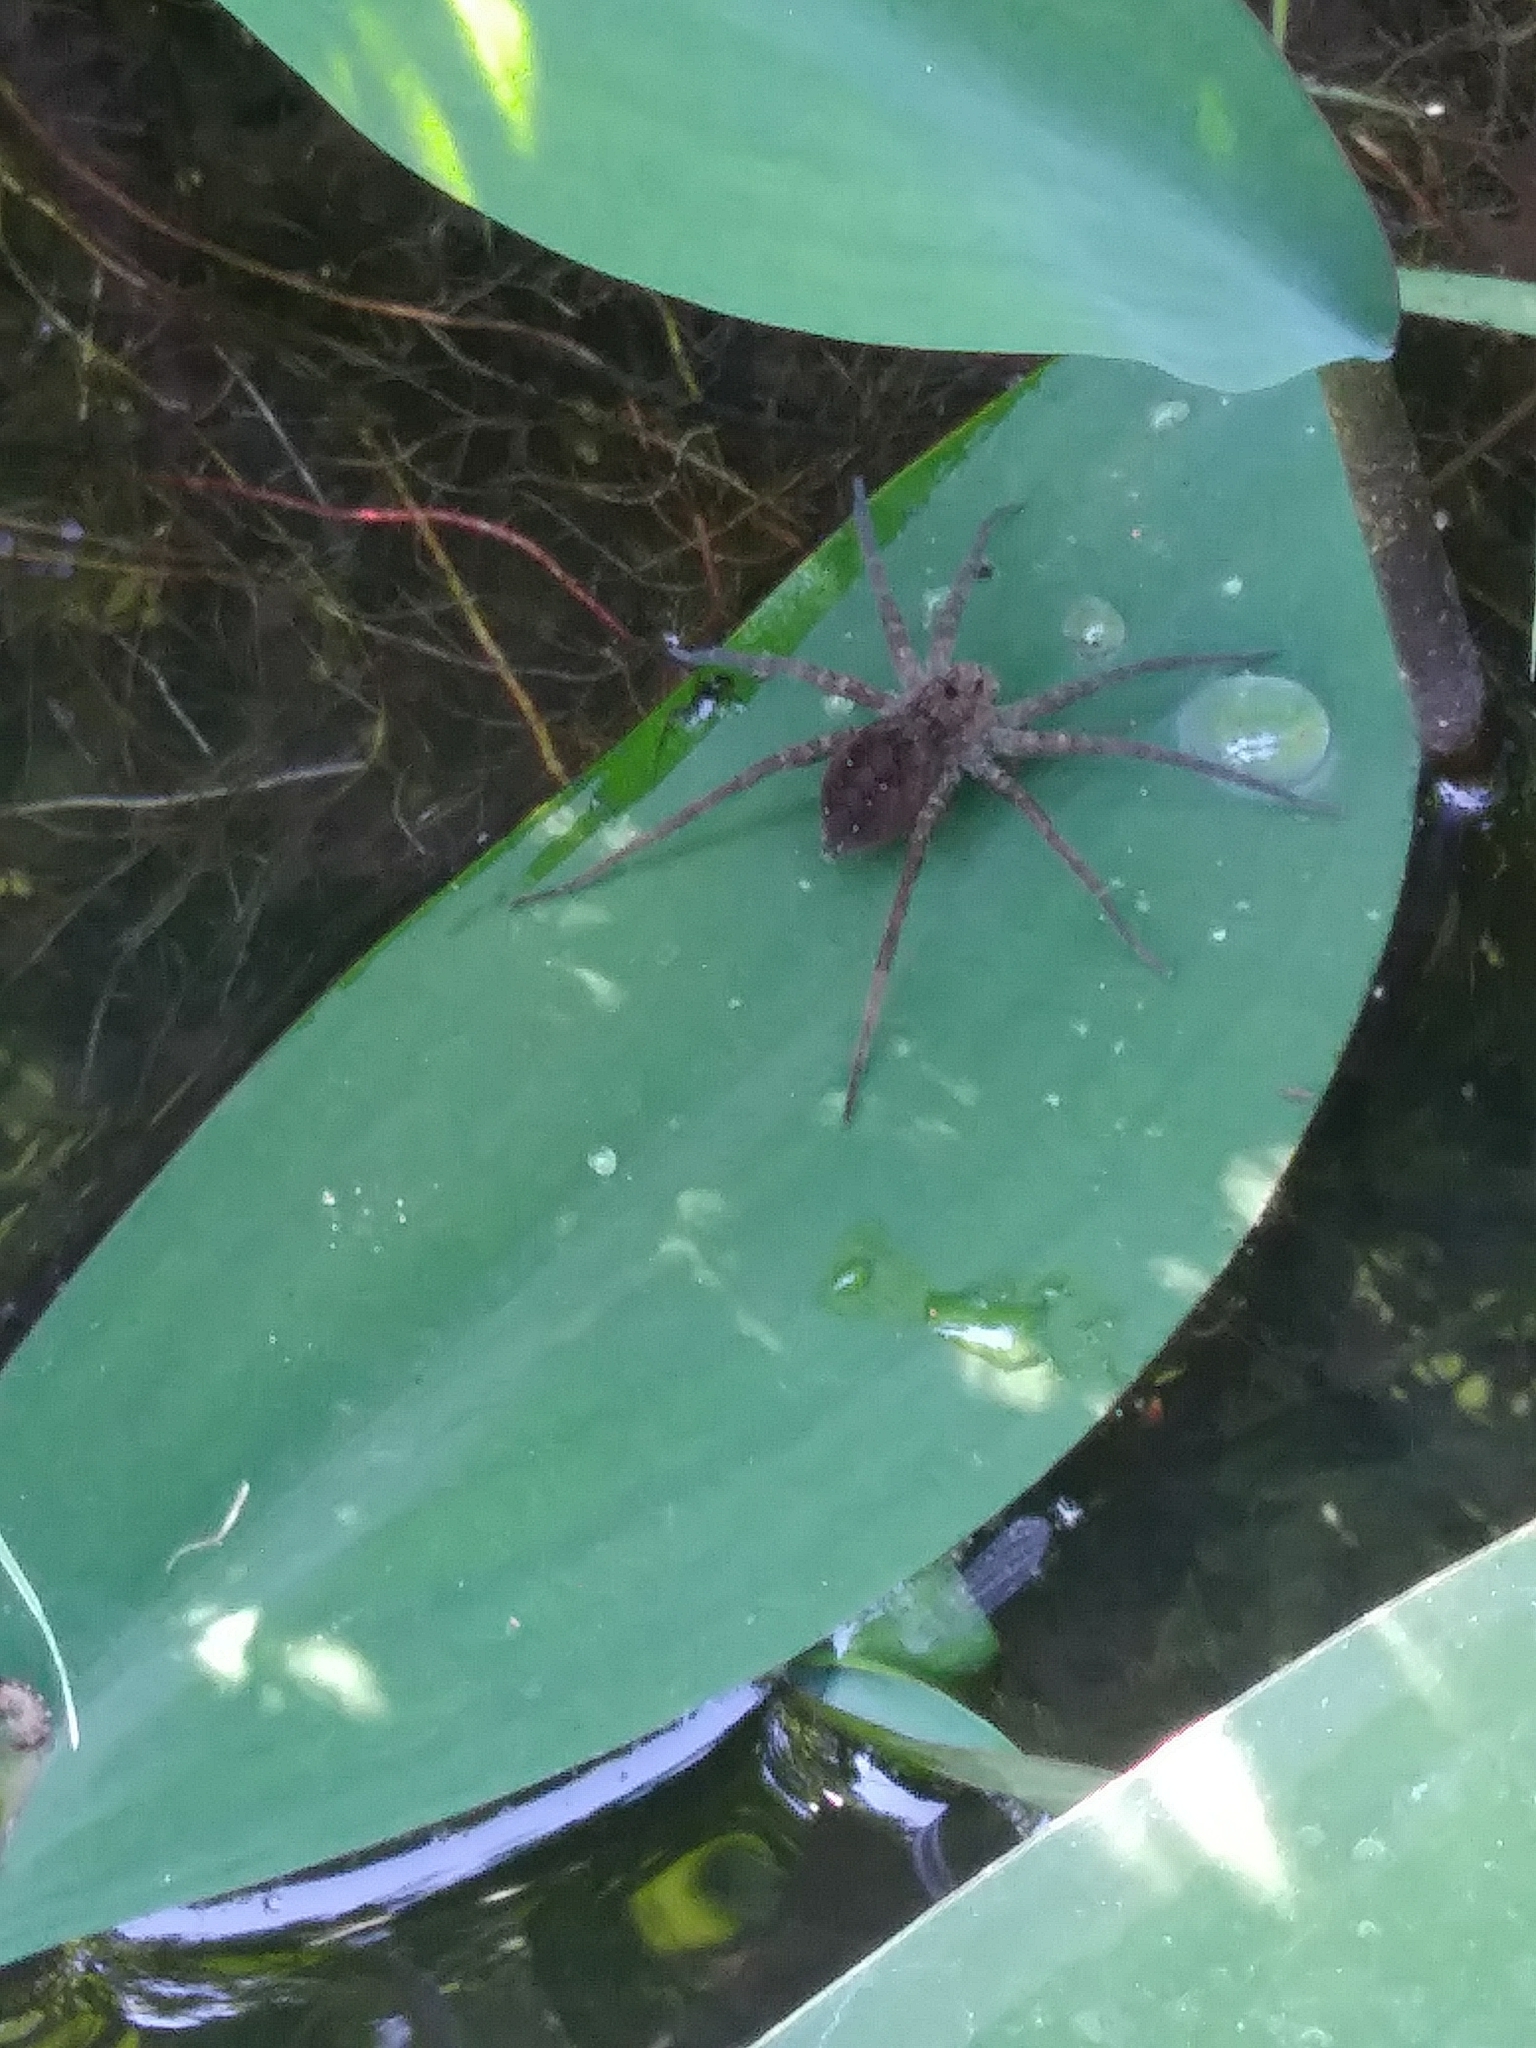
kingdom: Animalia
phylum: Arthropoda
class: Arachnida
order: Araneae
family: Pisauridae
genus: Dolomedes
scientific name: Dolomedes vittatus
